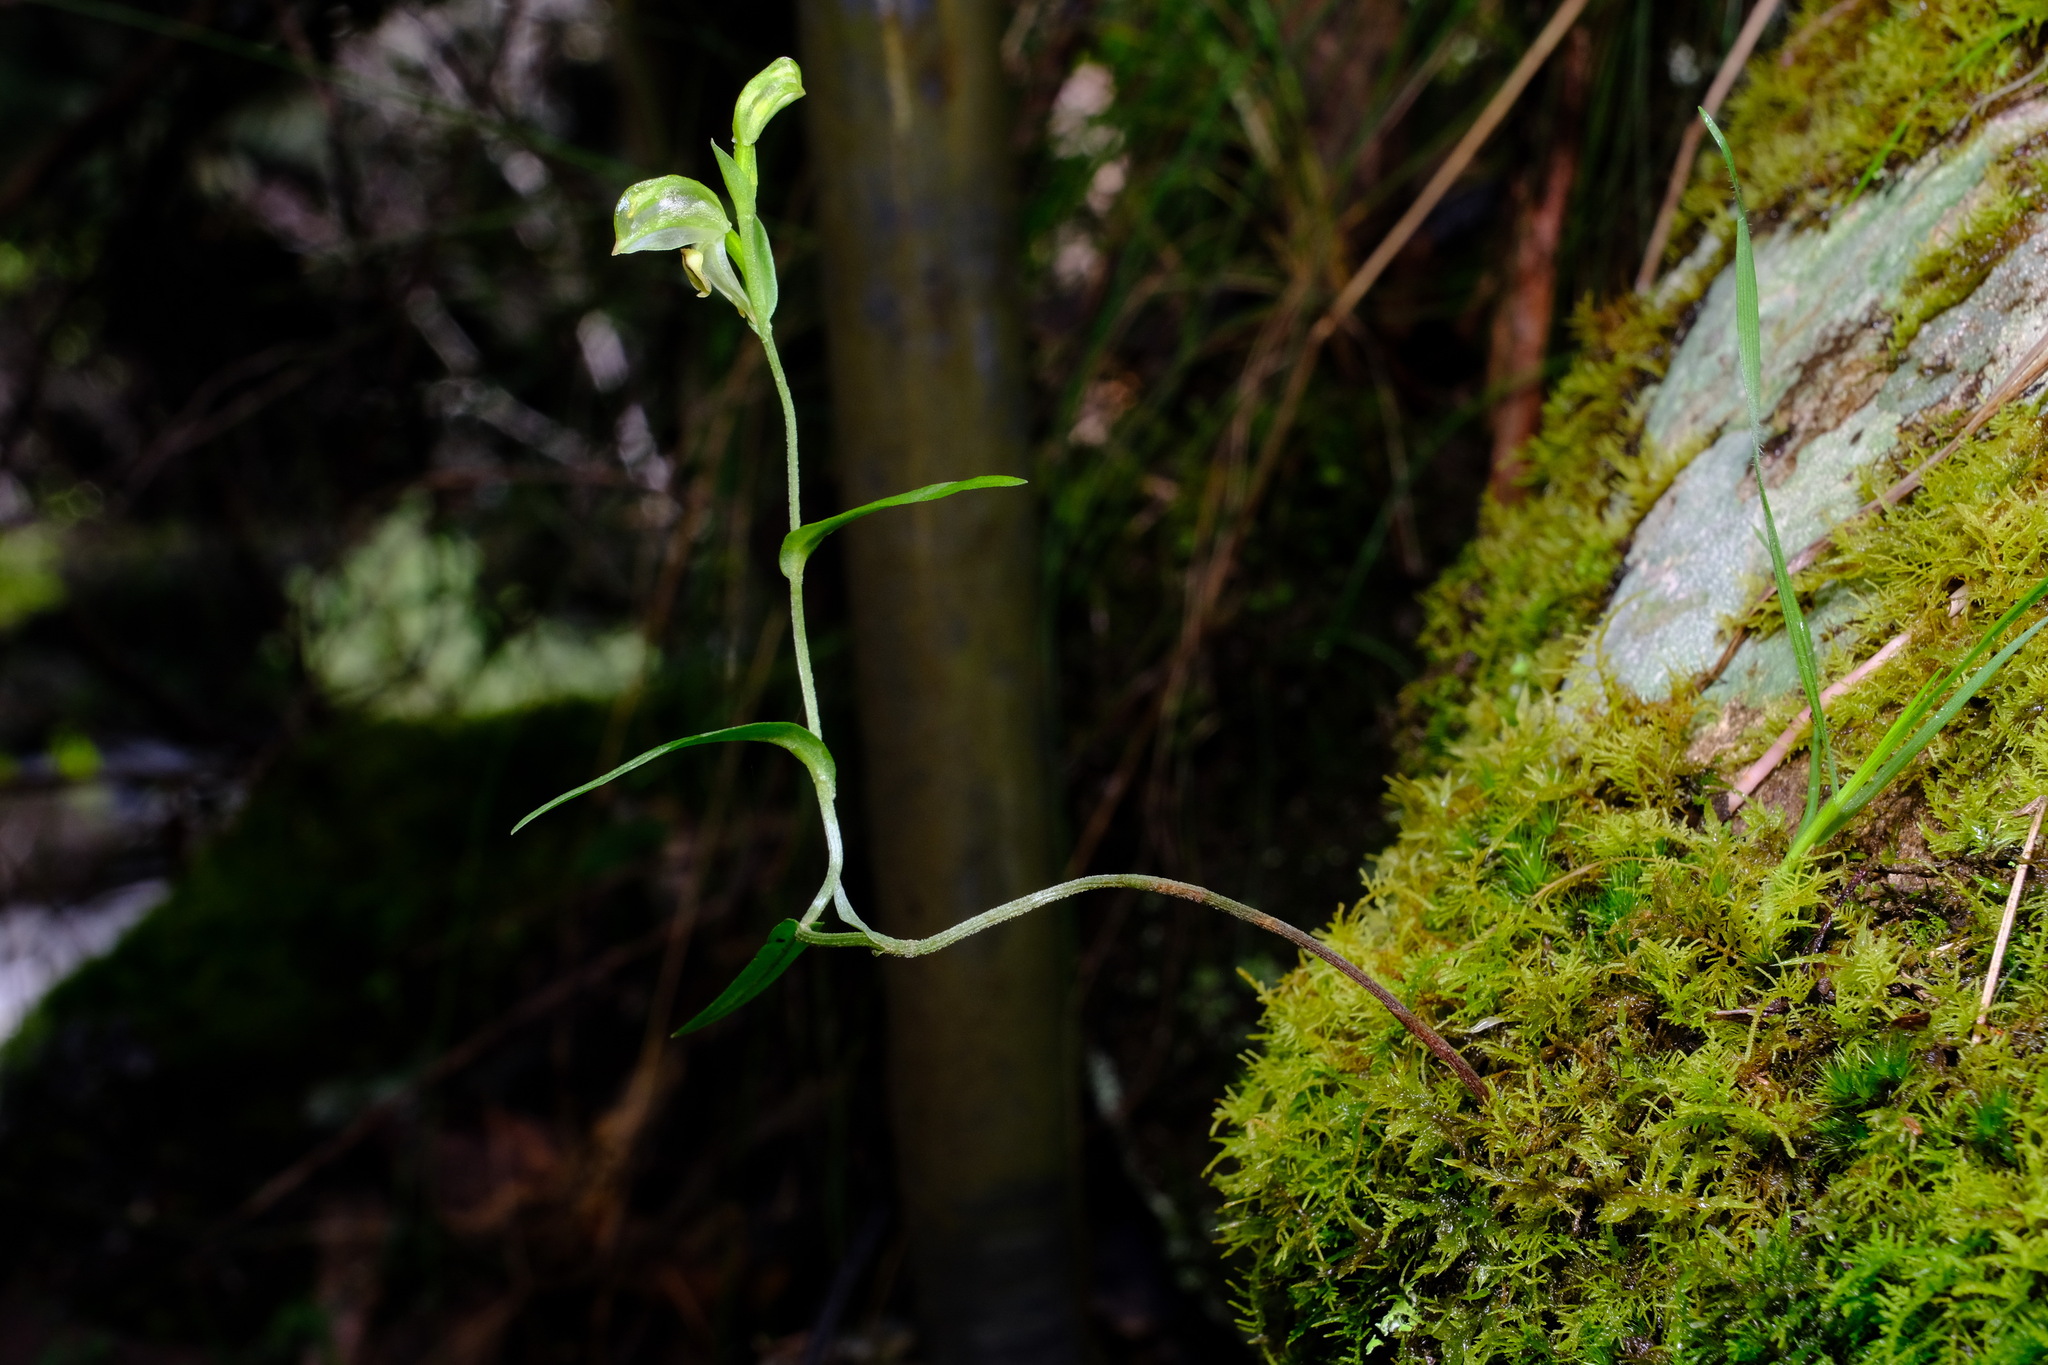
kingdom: Plantae
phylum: Tracheophyta
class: Liliopsida
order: Asparagales
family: Orchidaceae
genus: Pterostylis
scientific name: Pterostylis melagramma
